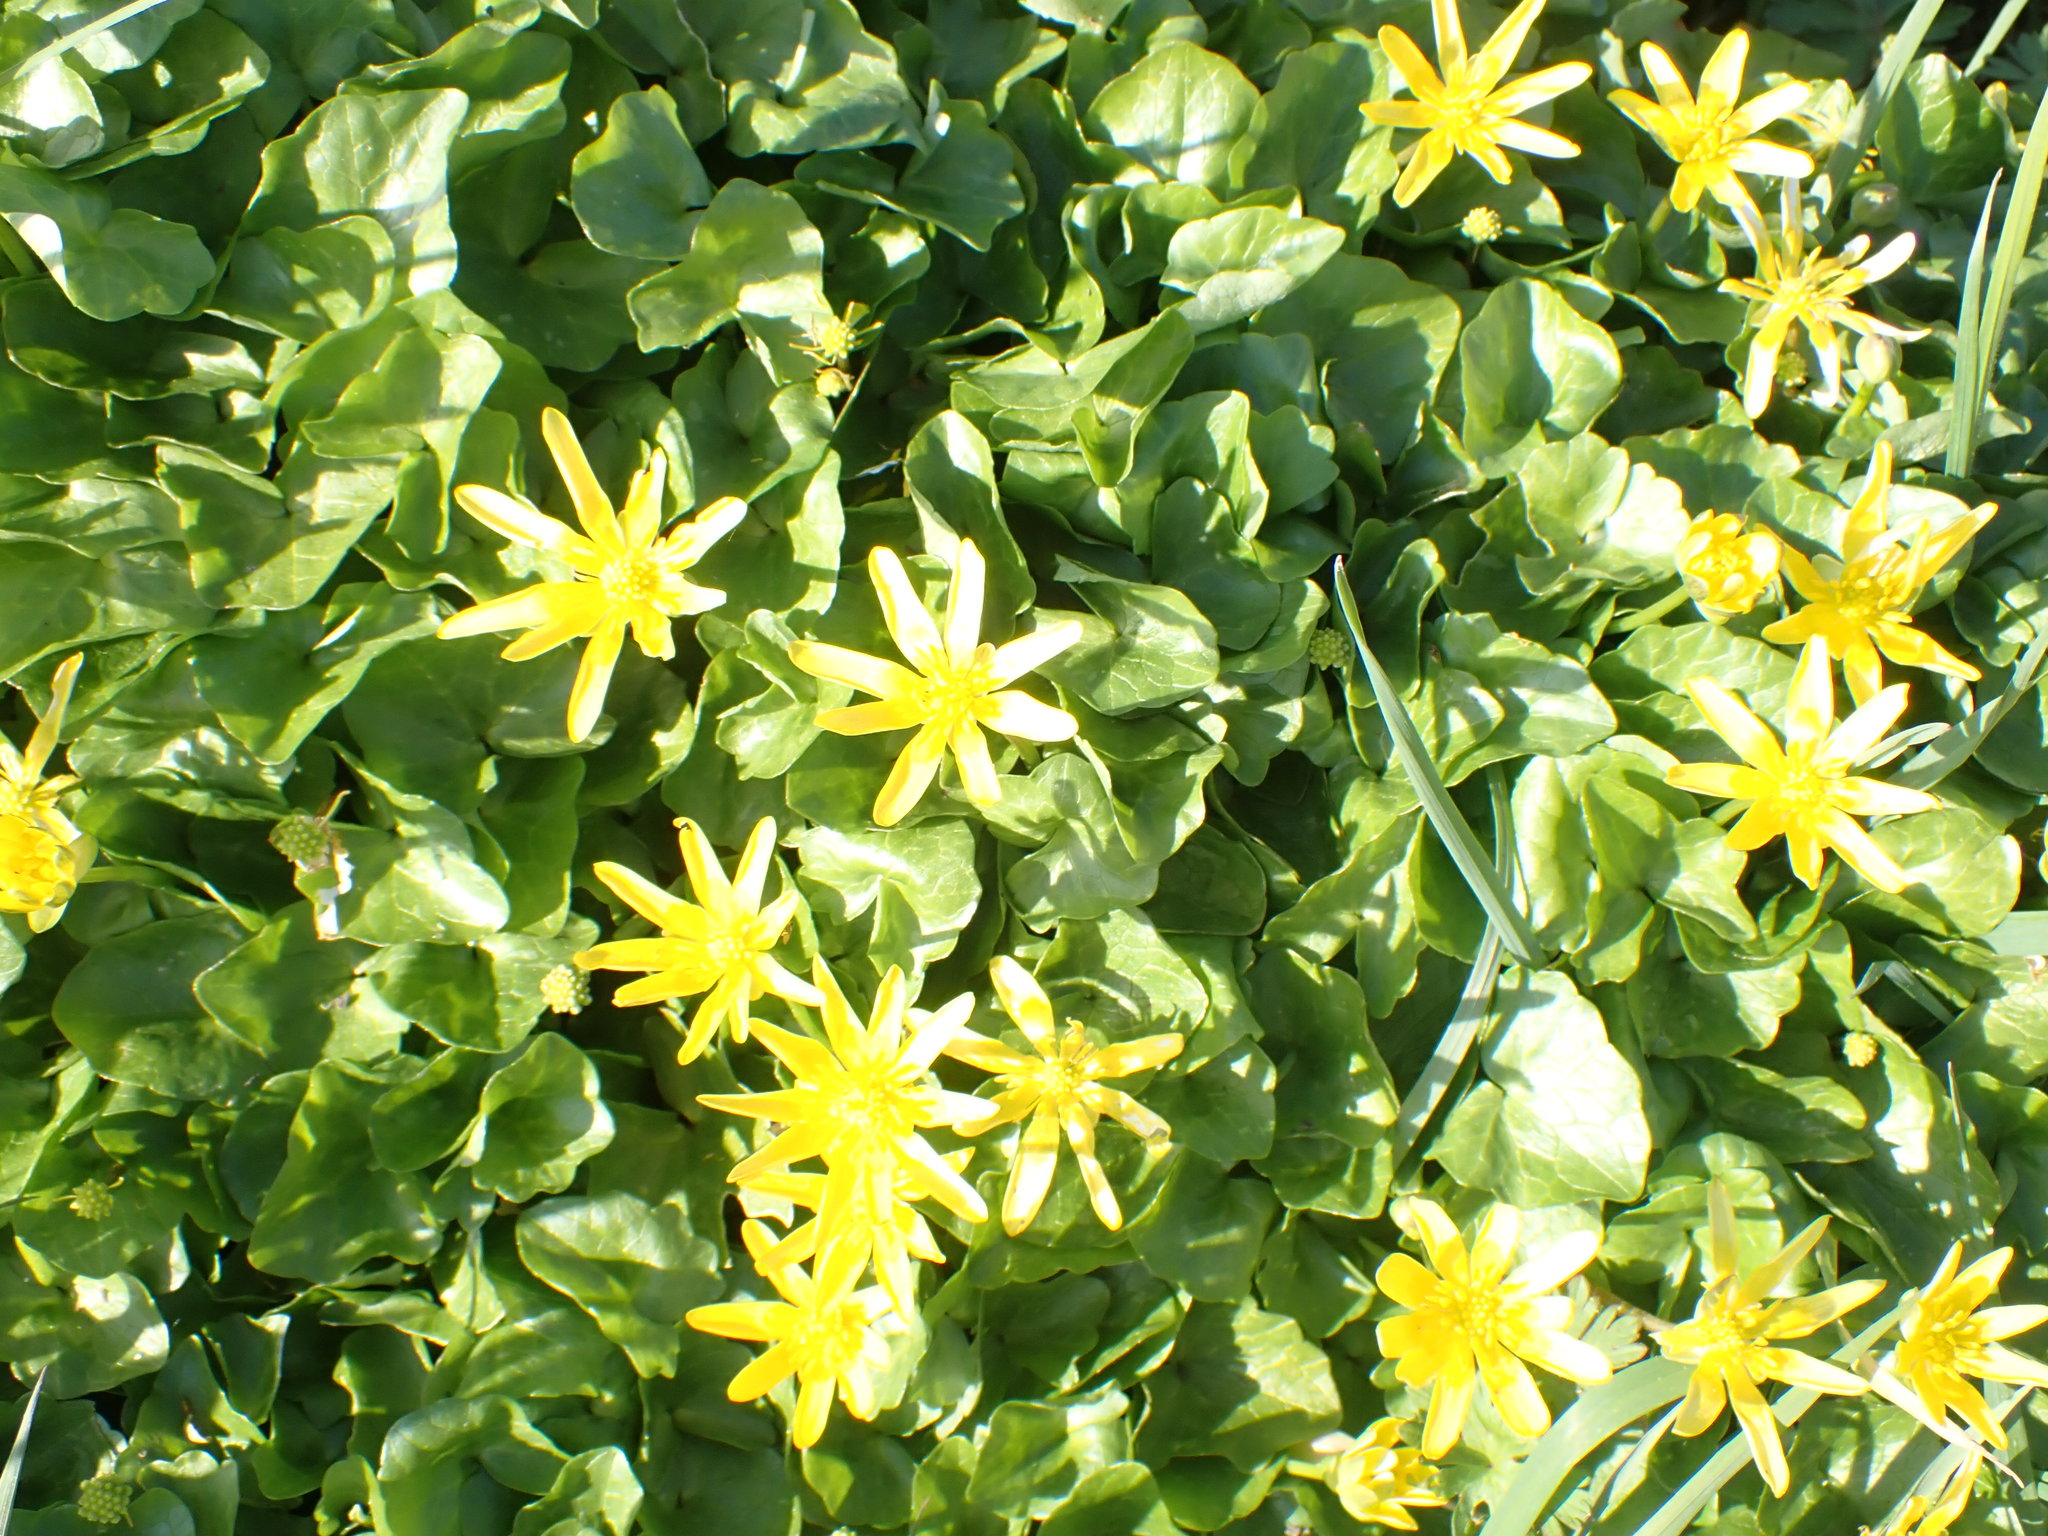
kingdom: Plantae
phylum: Tracheophyta
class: Magnoliopsida
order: Ranunculales
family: Ranunculaceae
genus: Ficaria
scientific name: Ficaria verna
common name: Lesser celandine
